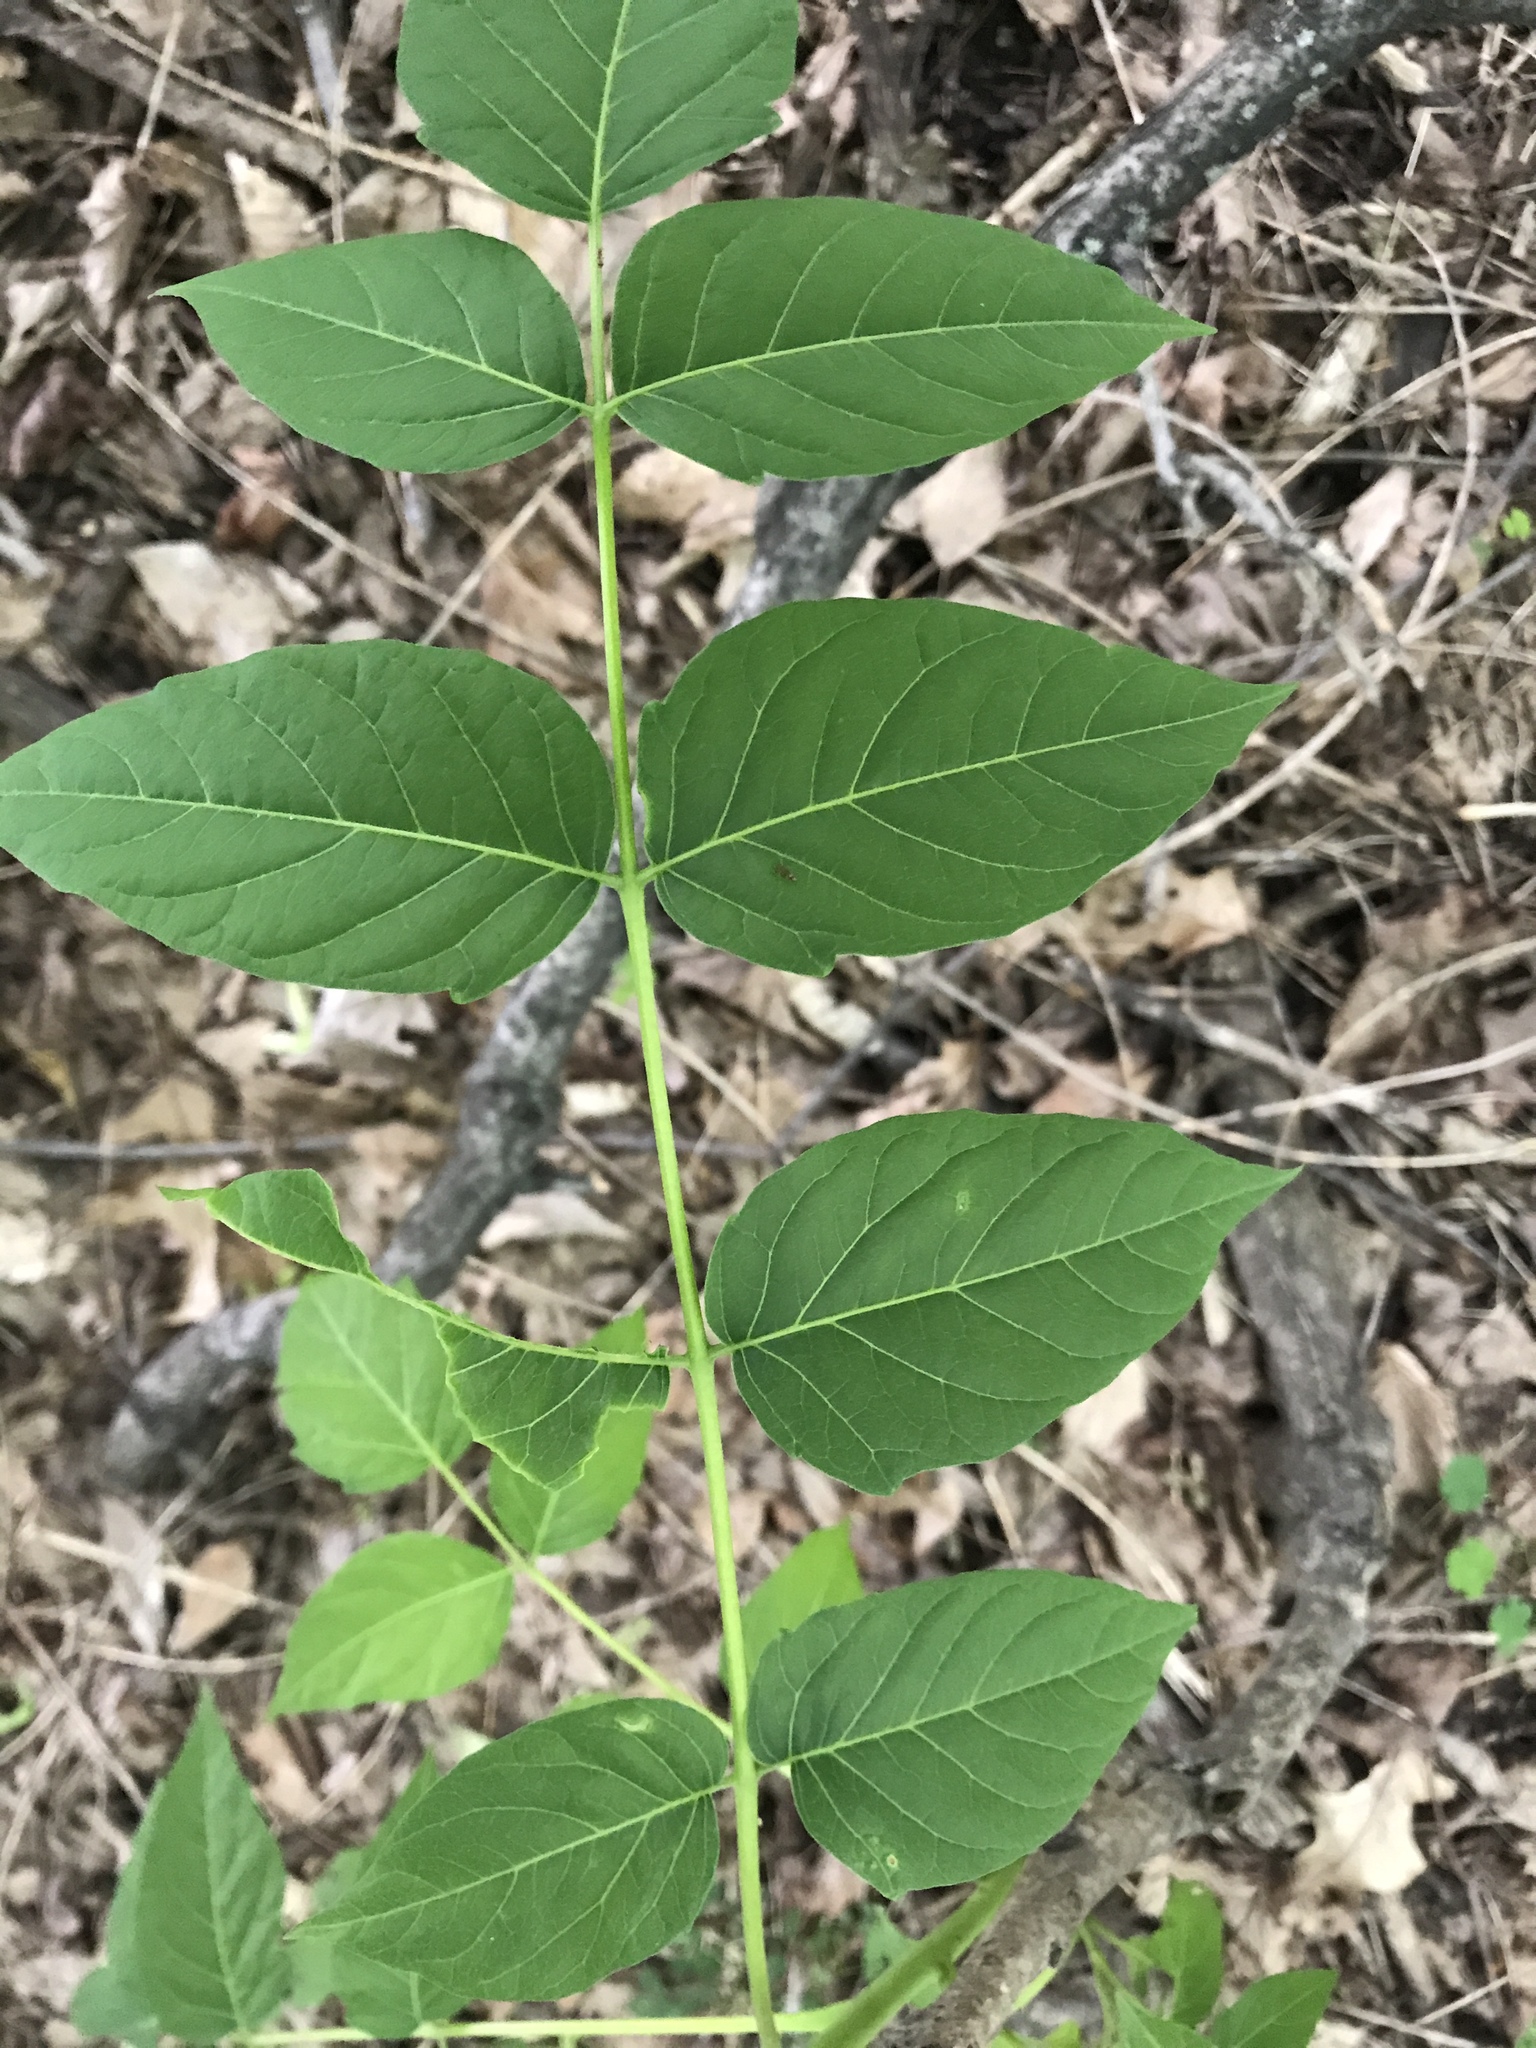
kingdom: Plantae
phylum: Tracheophyta
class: Magnoliopsida
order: Sapindales
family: Simaroubaceae
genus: Ailanthus
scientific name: Ailanthus altissima
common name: Tree-of-heaven
